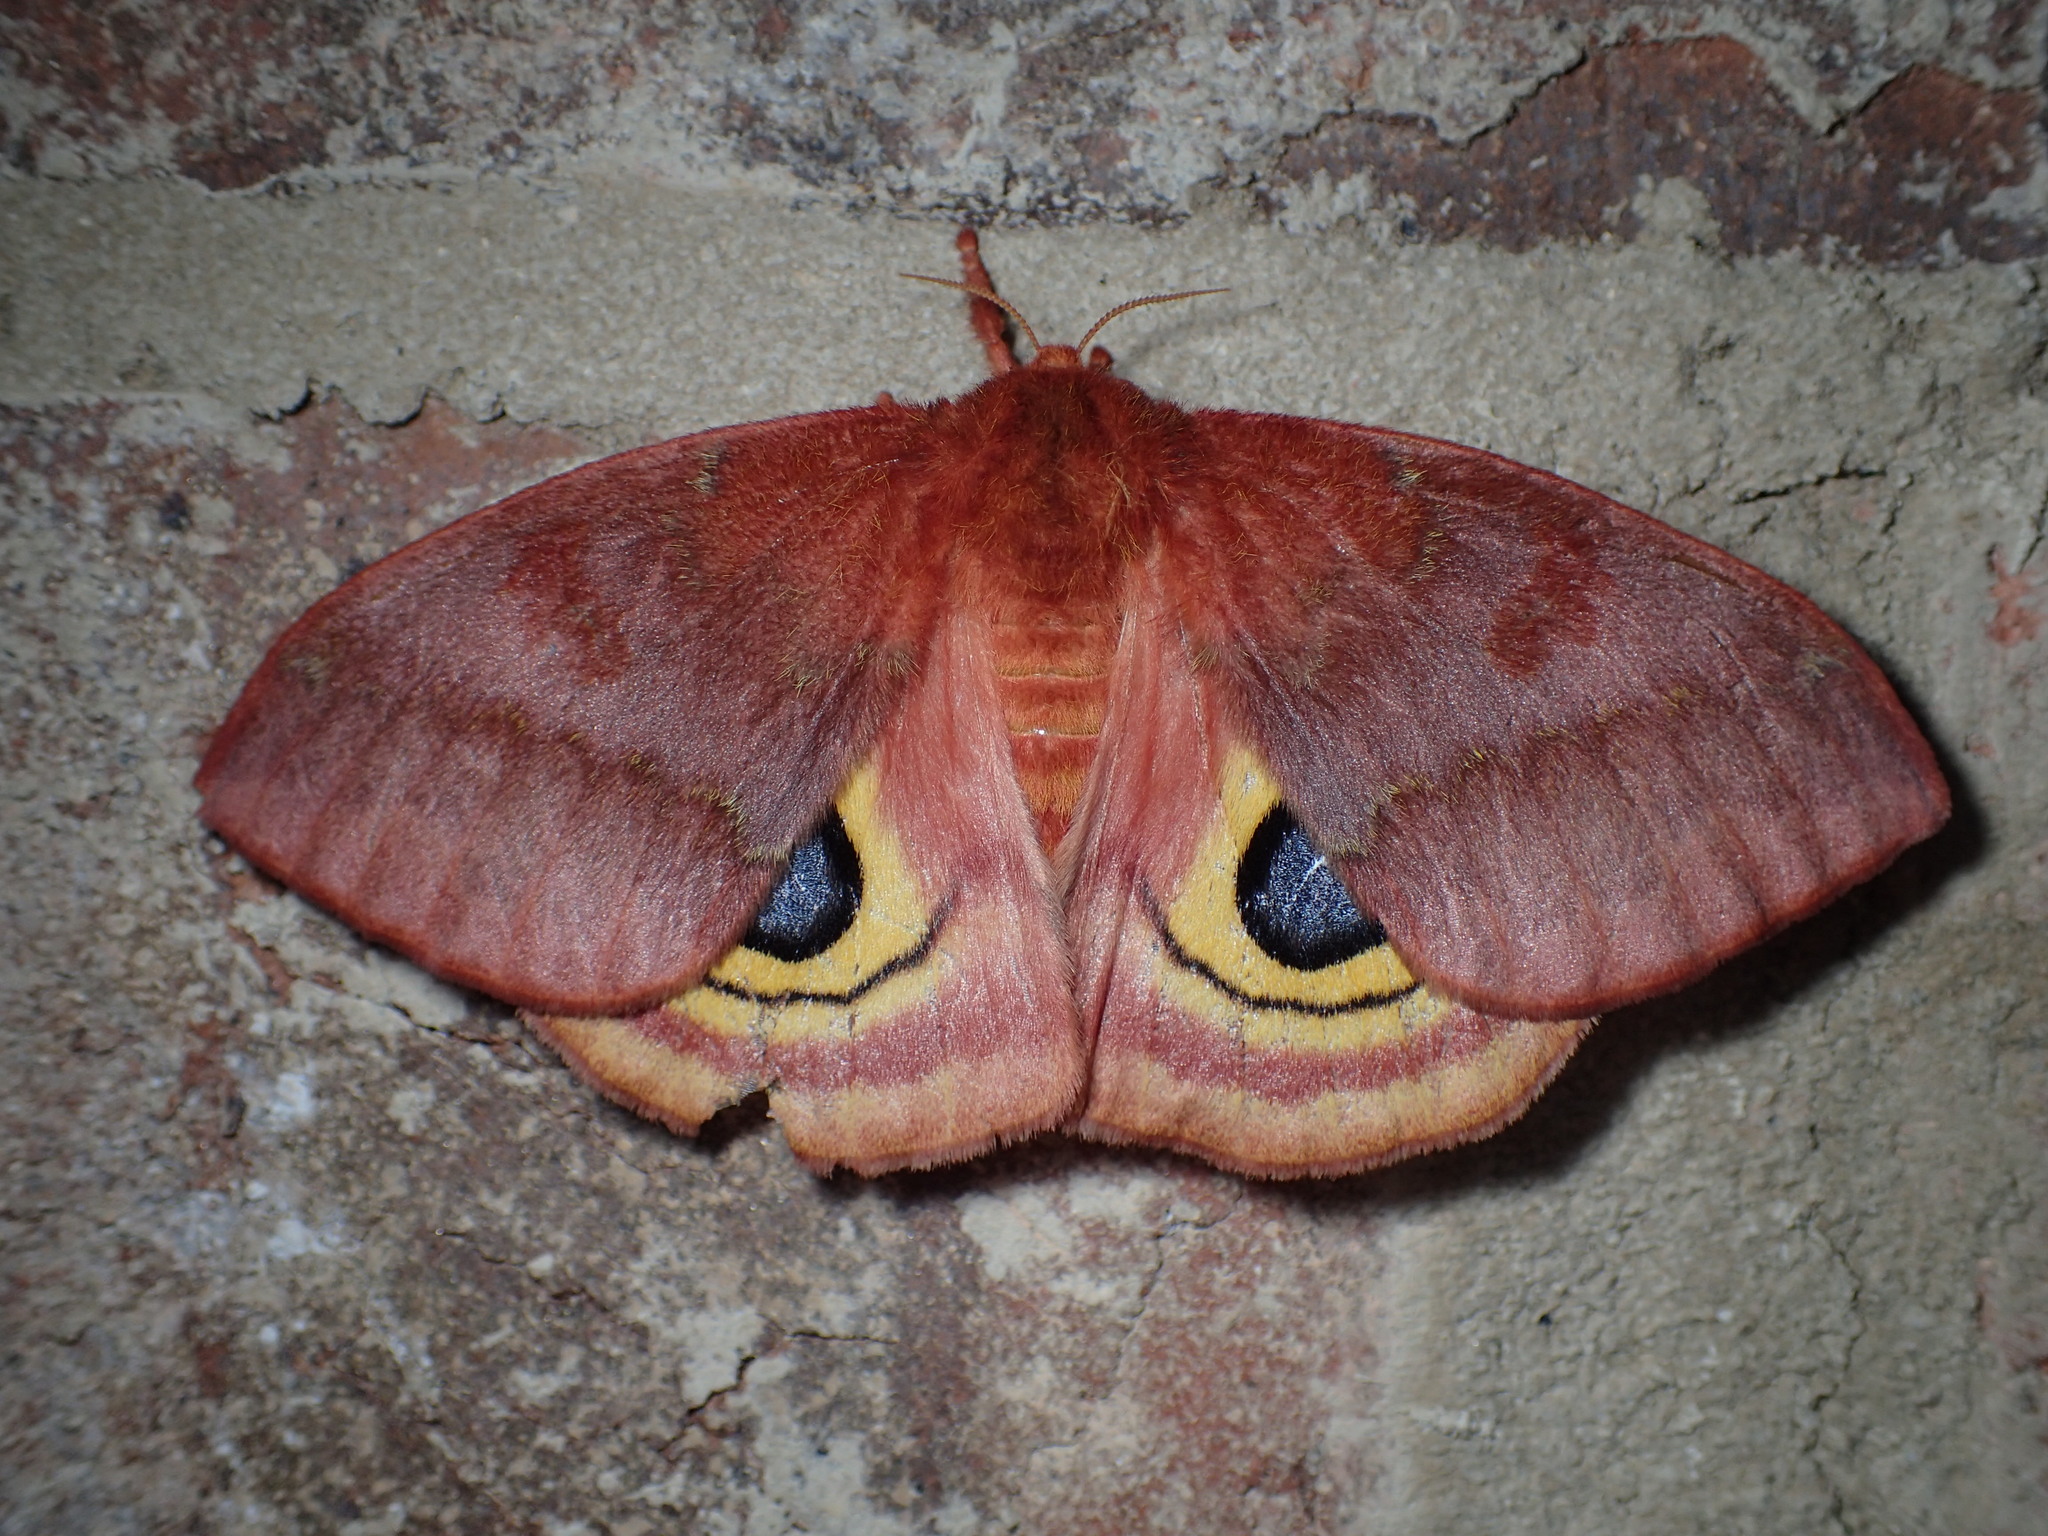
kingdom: Animalia
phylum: Arthropoda
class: Insecta
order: Lepidoptera
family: Saturniidae
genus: Automeris
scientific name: Automeris io
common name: Io moth
